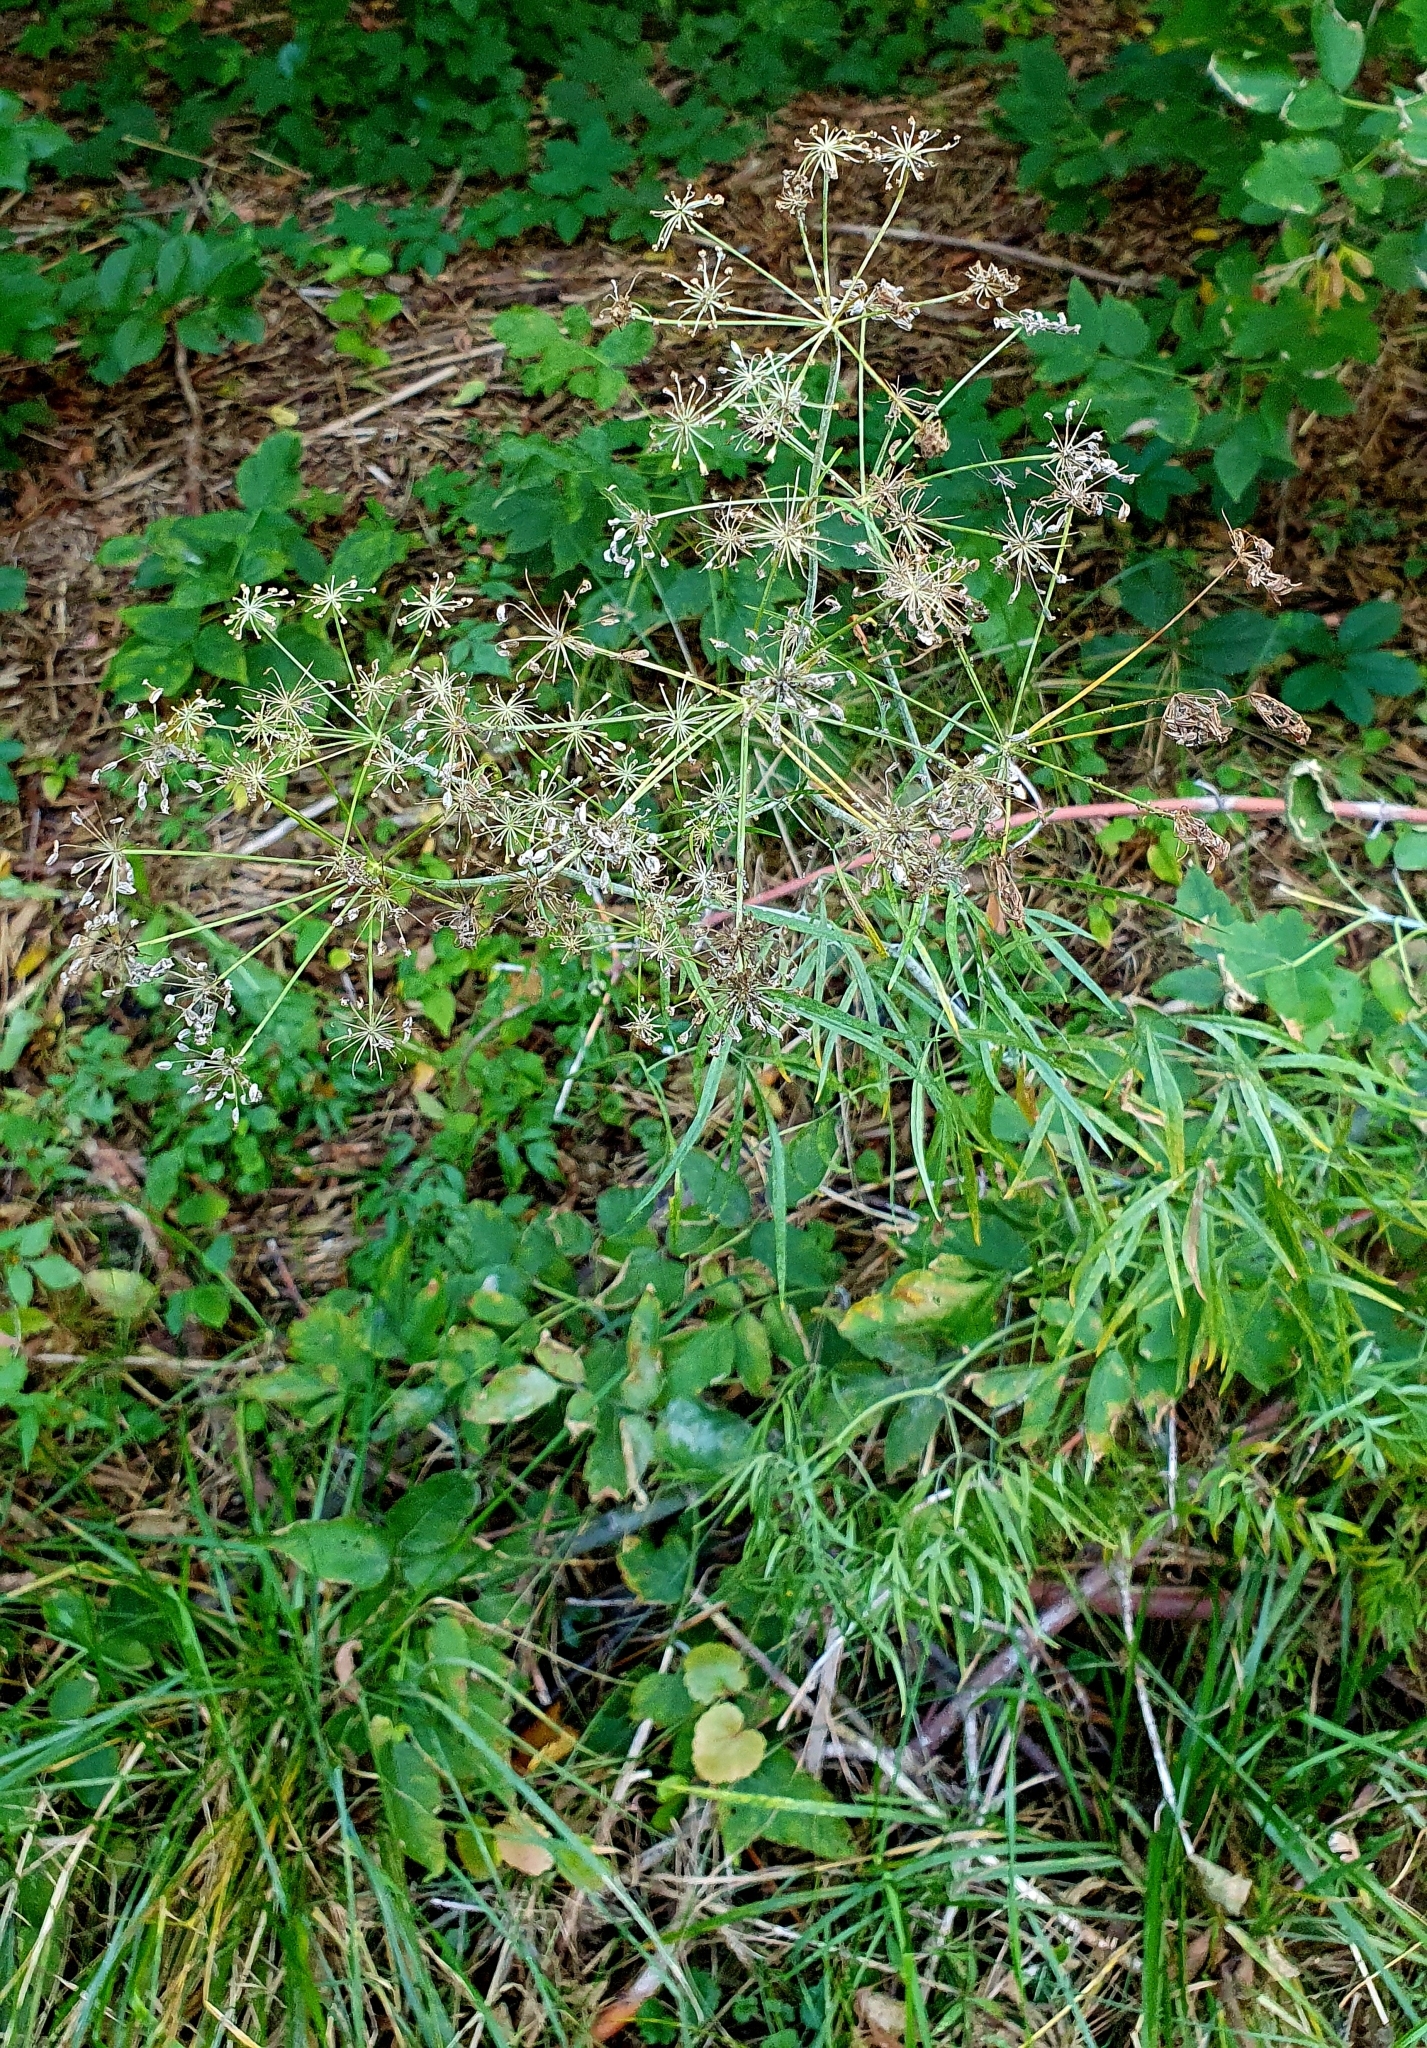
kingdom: Plantae
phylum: Tracheophyta
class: Magnoliopsida
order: Apiales
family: Apiaceae
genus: Cenolophium
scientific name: Cenolophium fischeri
